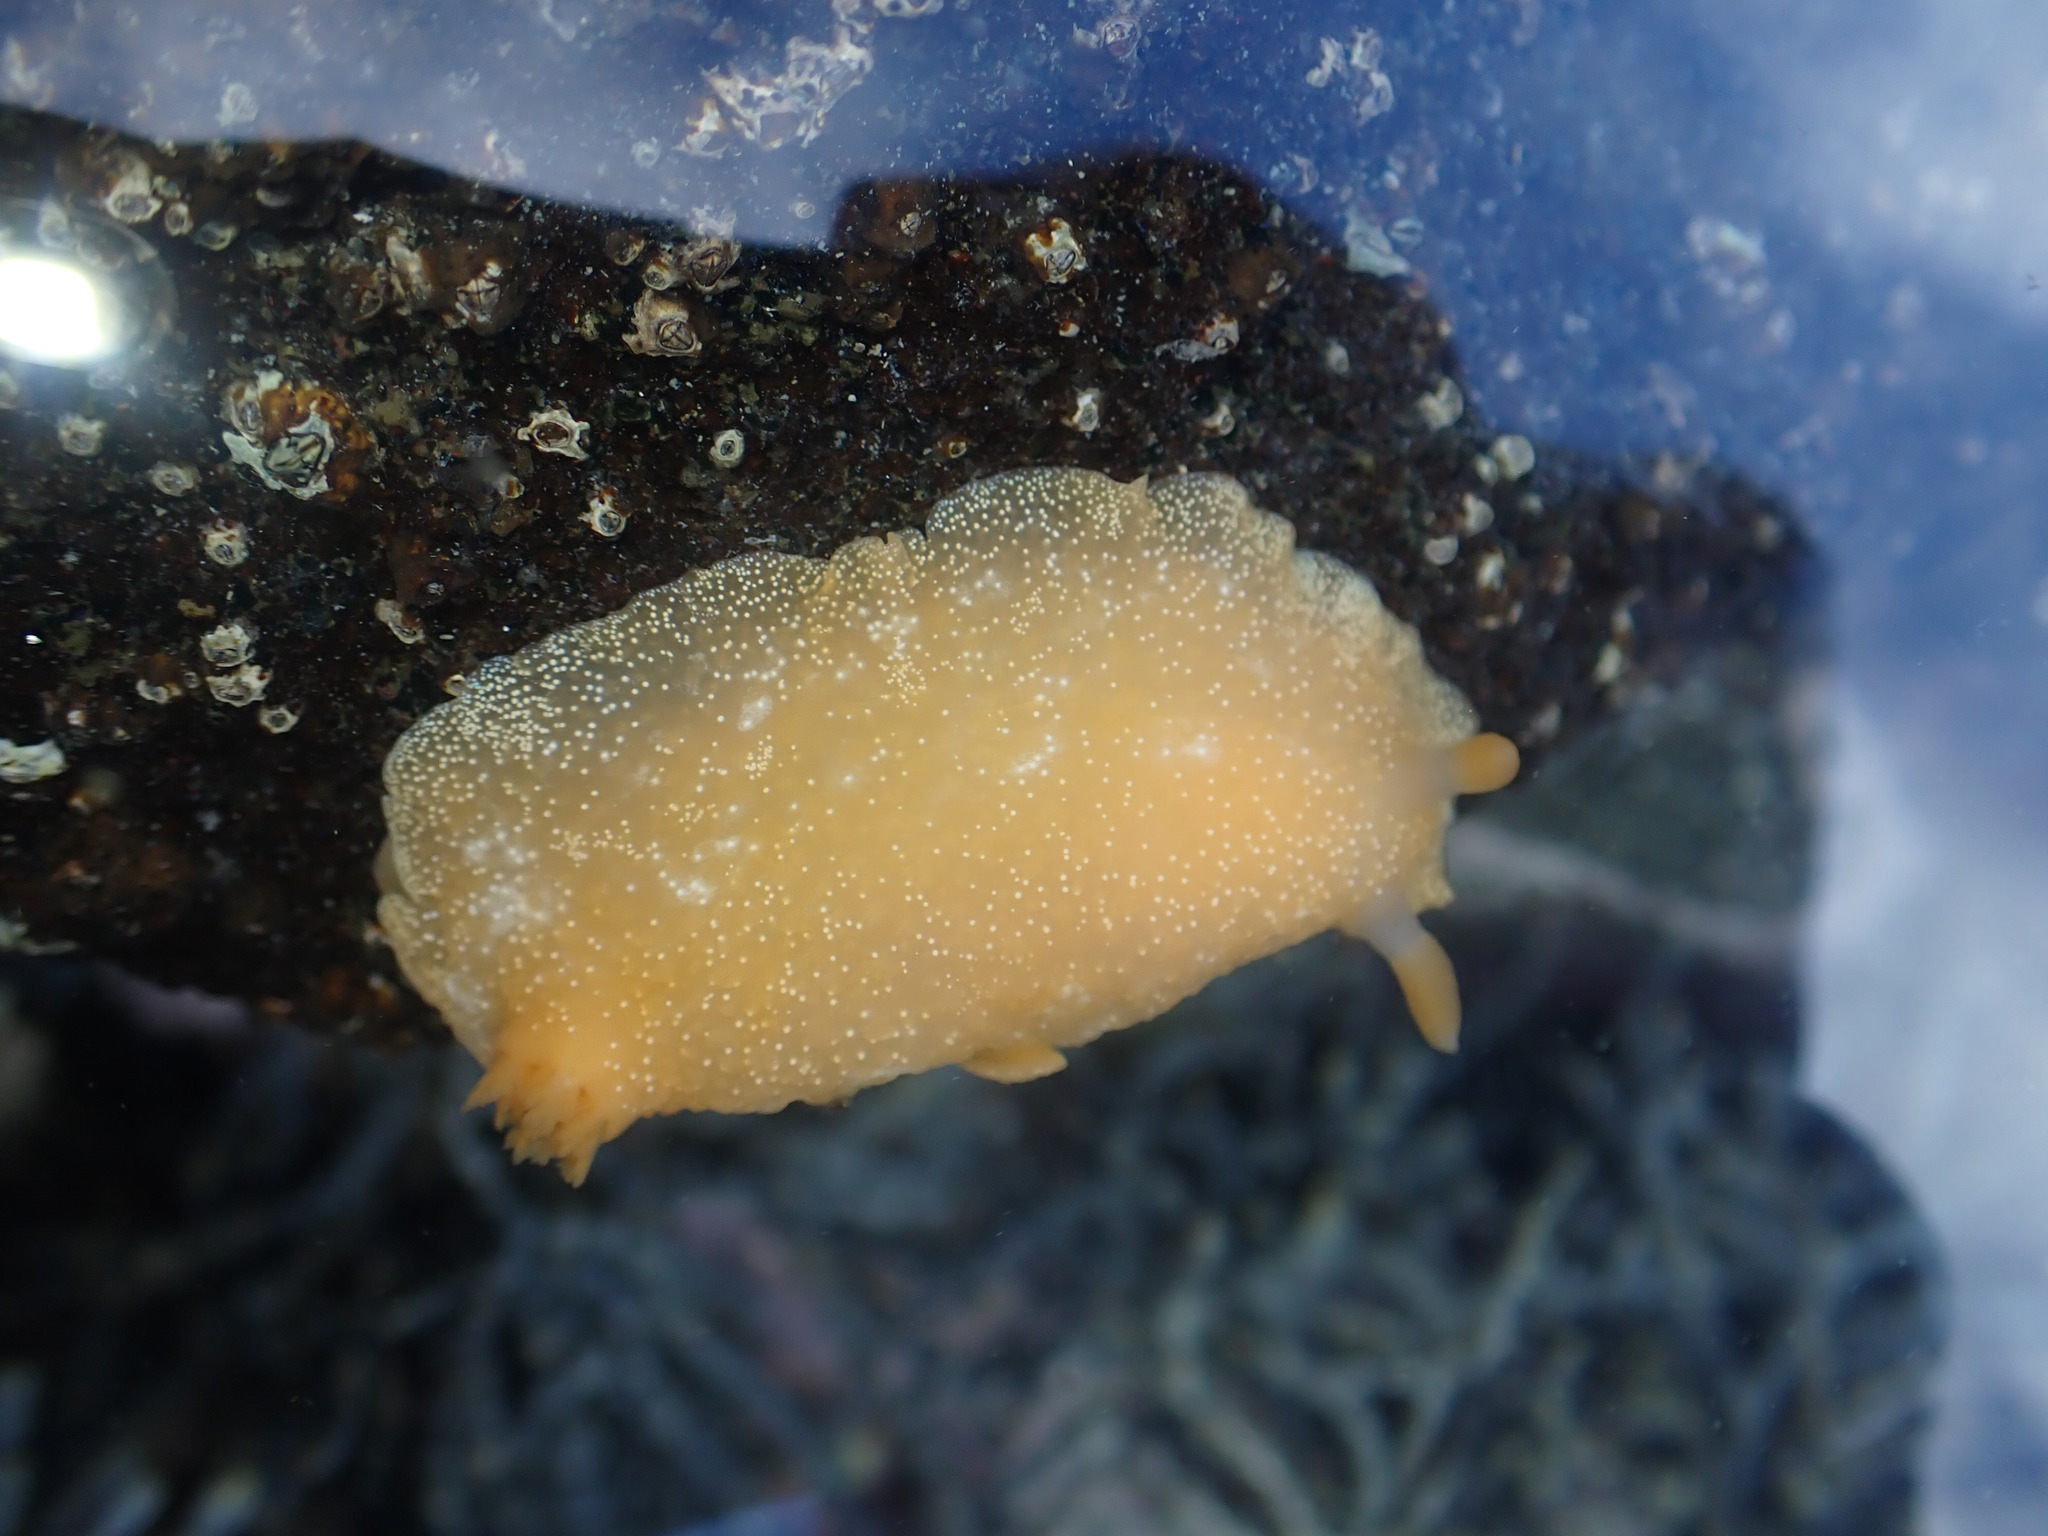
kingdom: Animalia
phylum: Mollusca
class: Gastropoda
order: Nudibranchia
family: Dendrodorididae
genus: Dendrodoris
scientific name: Dendrodoris citrina
